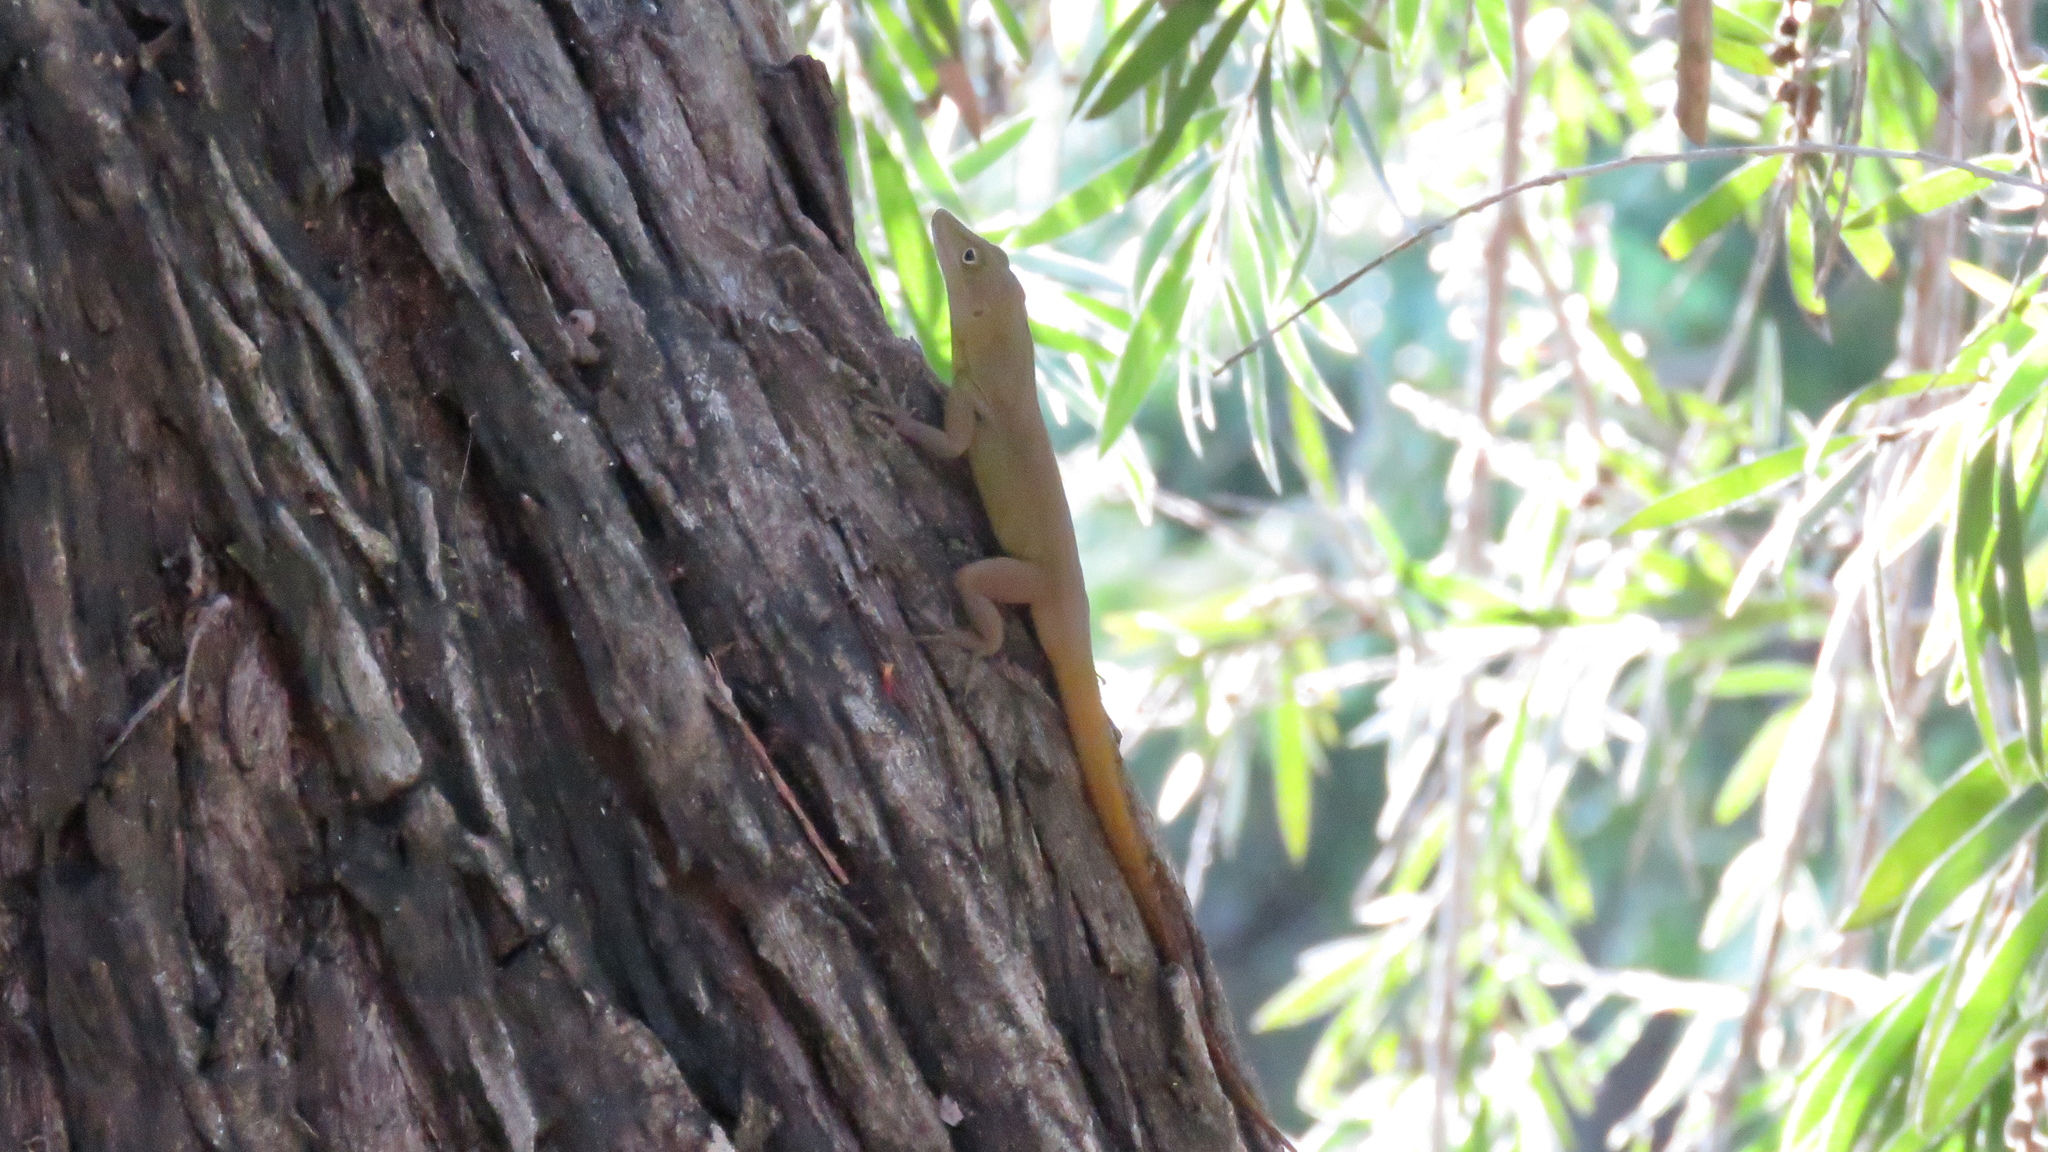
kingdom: Animalia
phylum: Chordata
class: Squamata
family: Dactyloidae
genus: Anolis
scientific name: Anolis grahami
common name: Graham's anole
